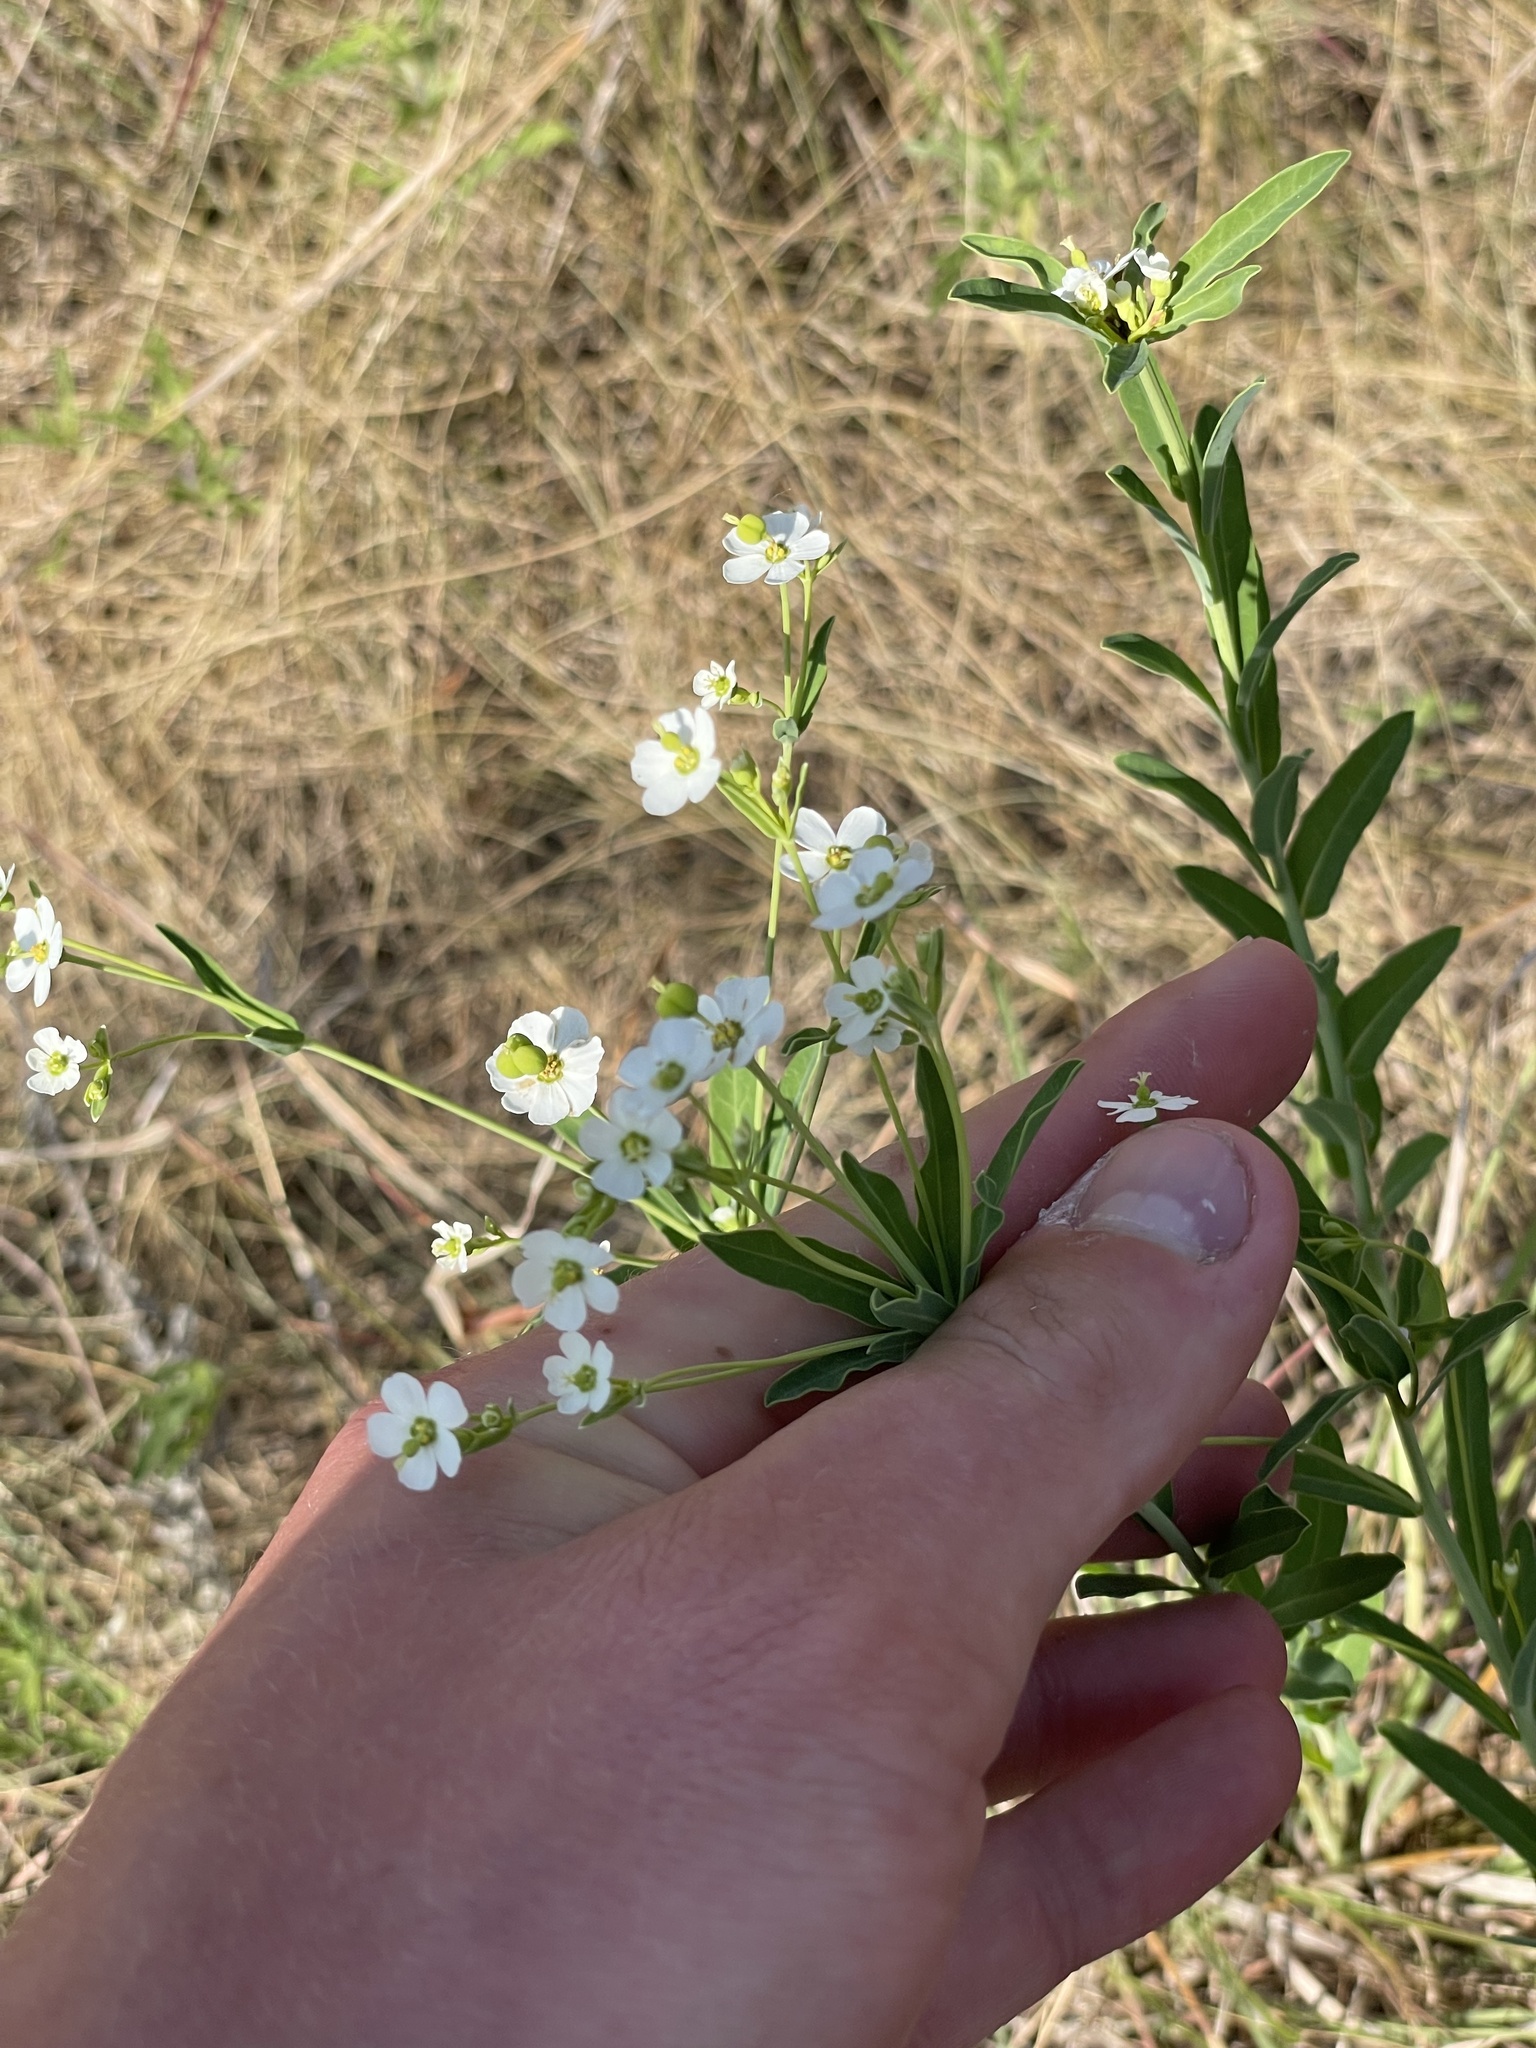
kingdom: Plantae
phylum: Tracheophyta
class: Magnoliopsida
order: Malpighiales
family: Euphorbiaceae
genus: Euphorbia
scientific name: Euphorbia corollata
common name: Flowering spurge
